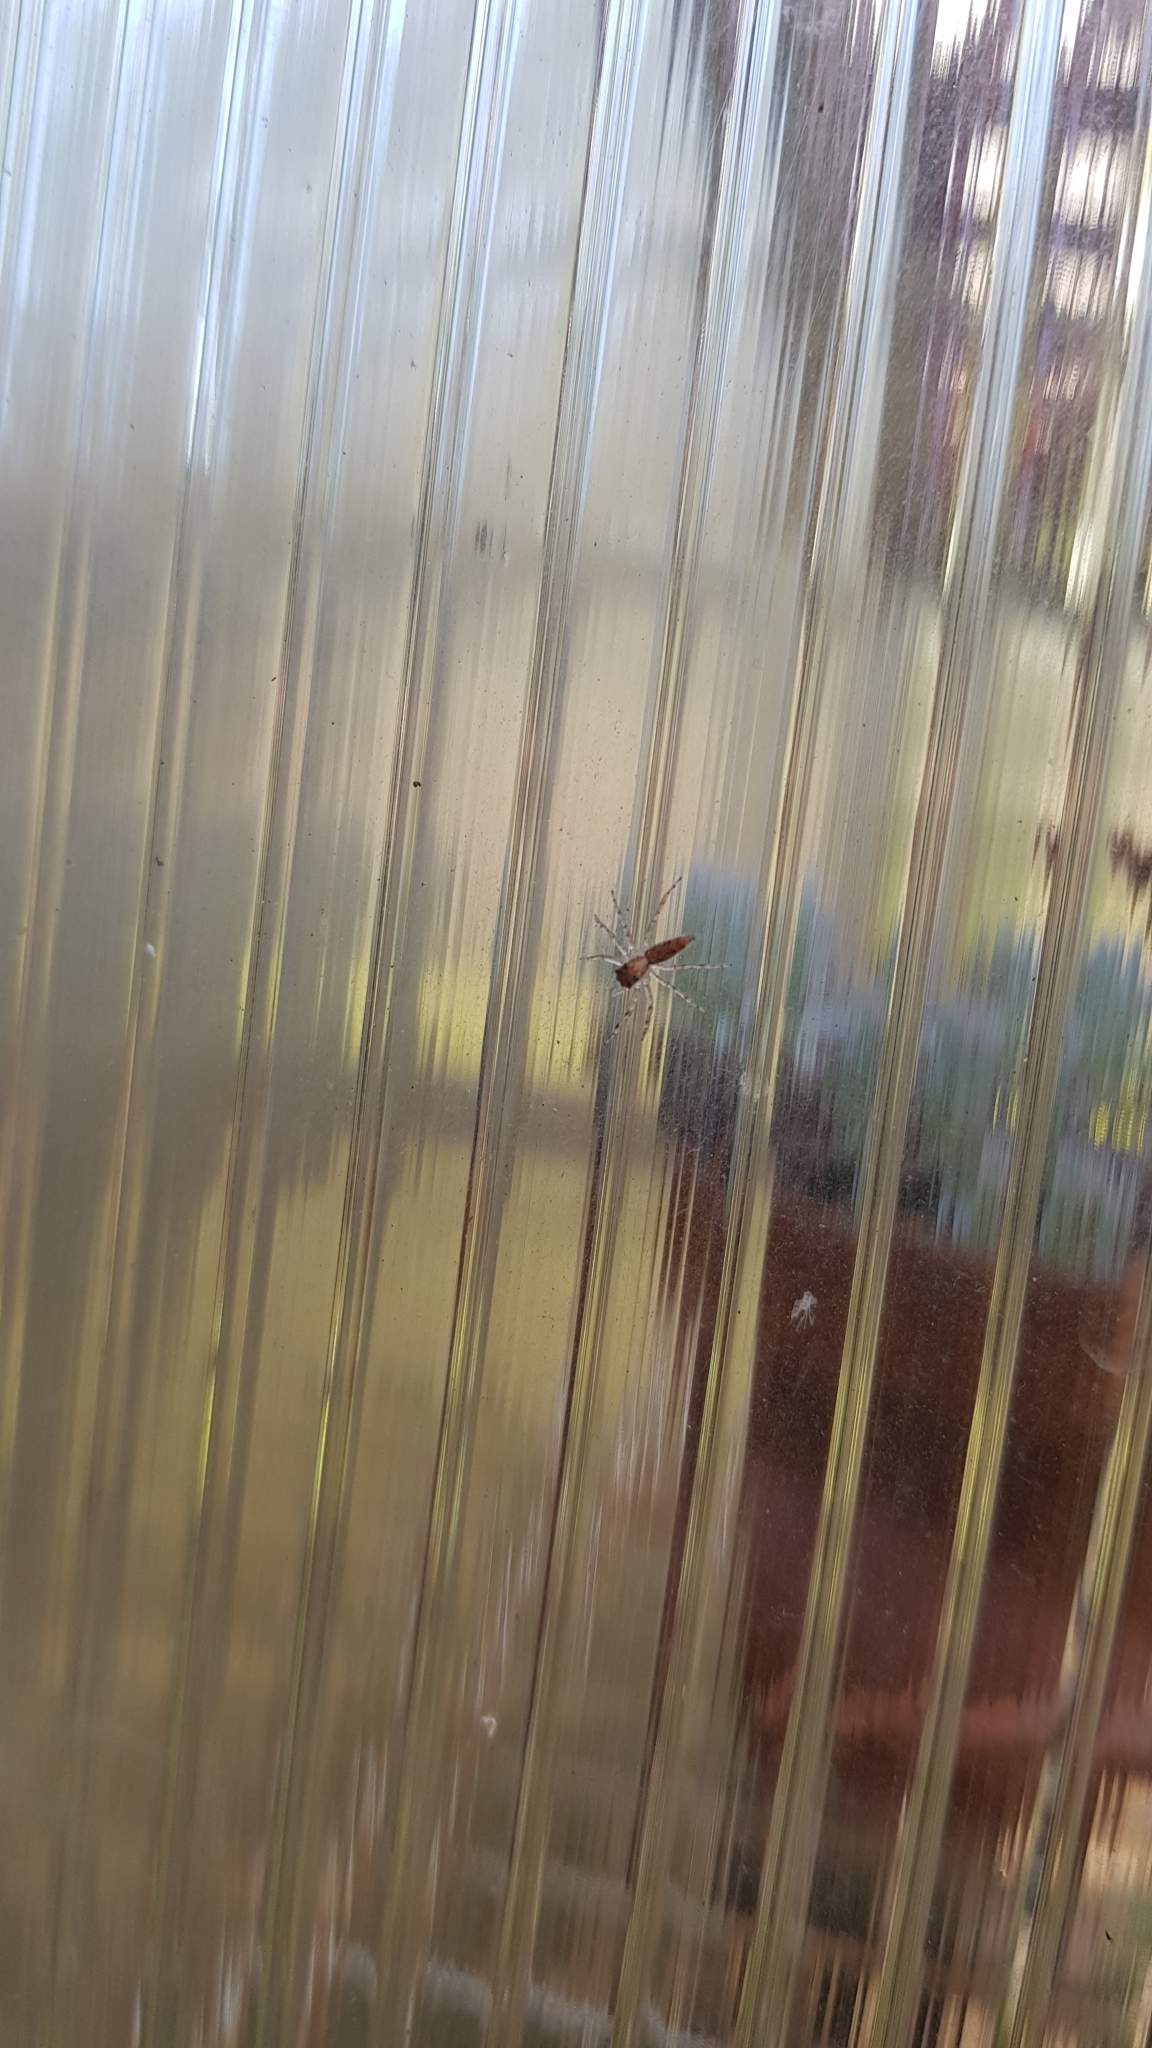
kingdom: Animalia
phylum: Arthropoda
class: Arachnida
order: Araneae
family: Salticidae
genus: Helpis
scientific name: Helpis minitabunda
